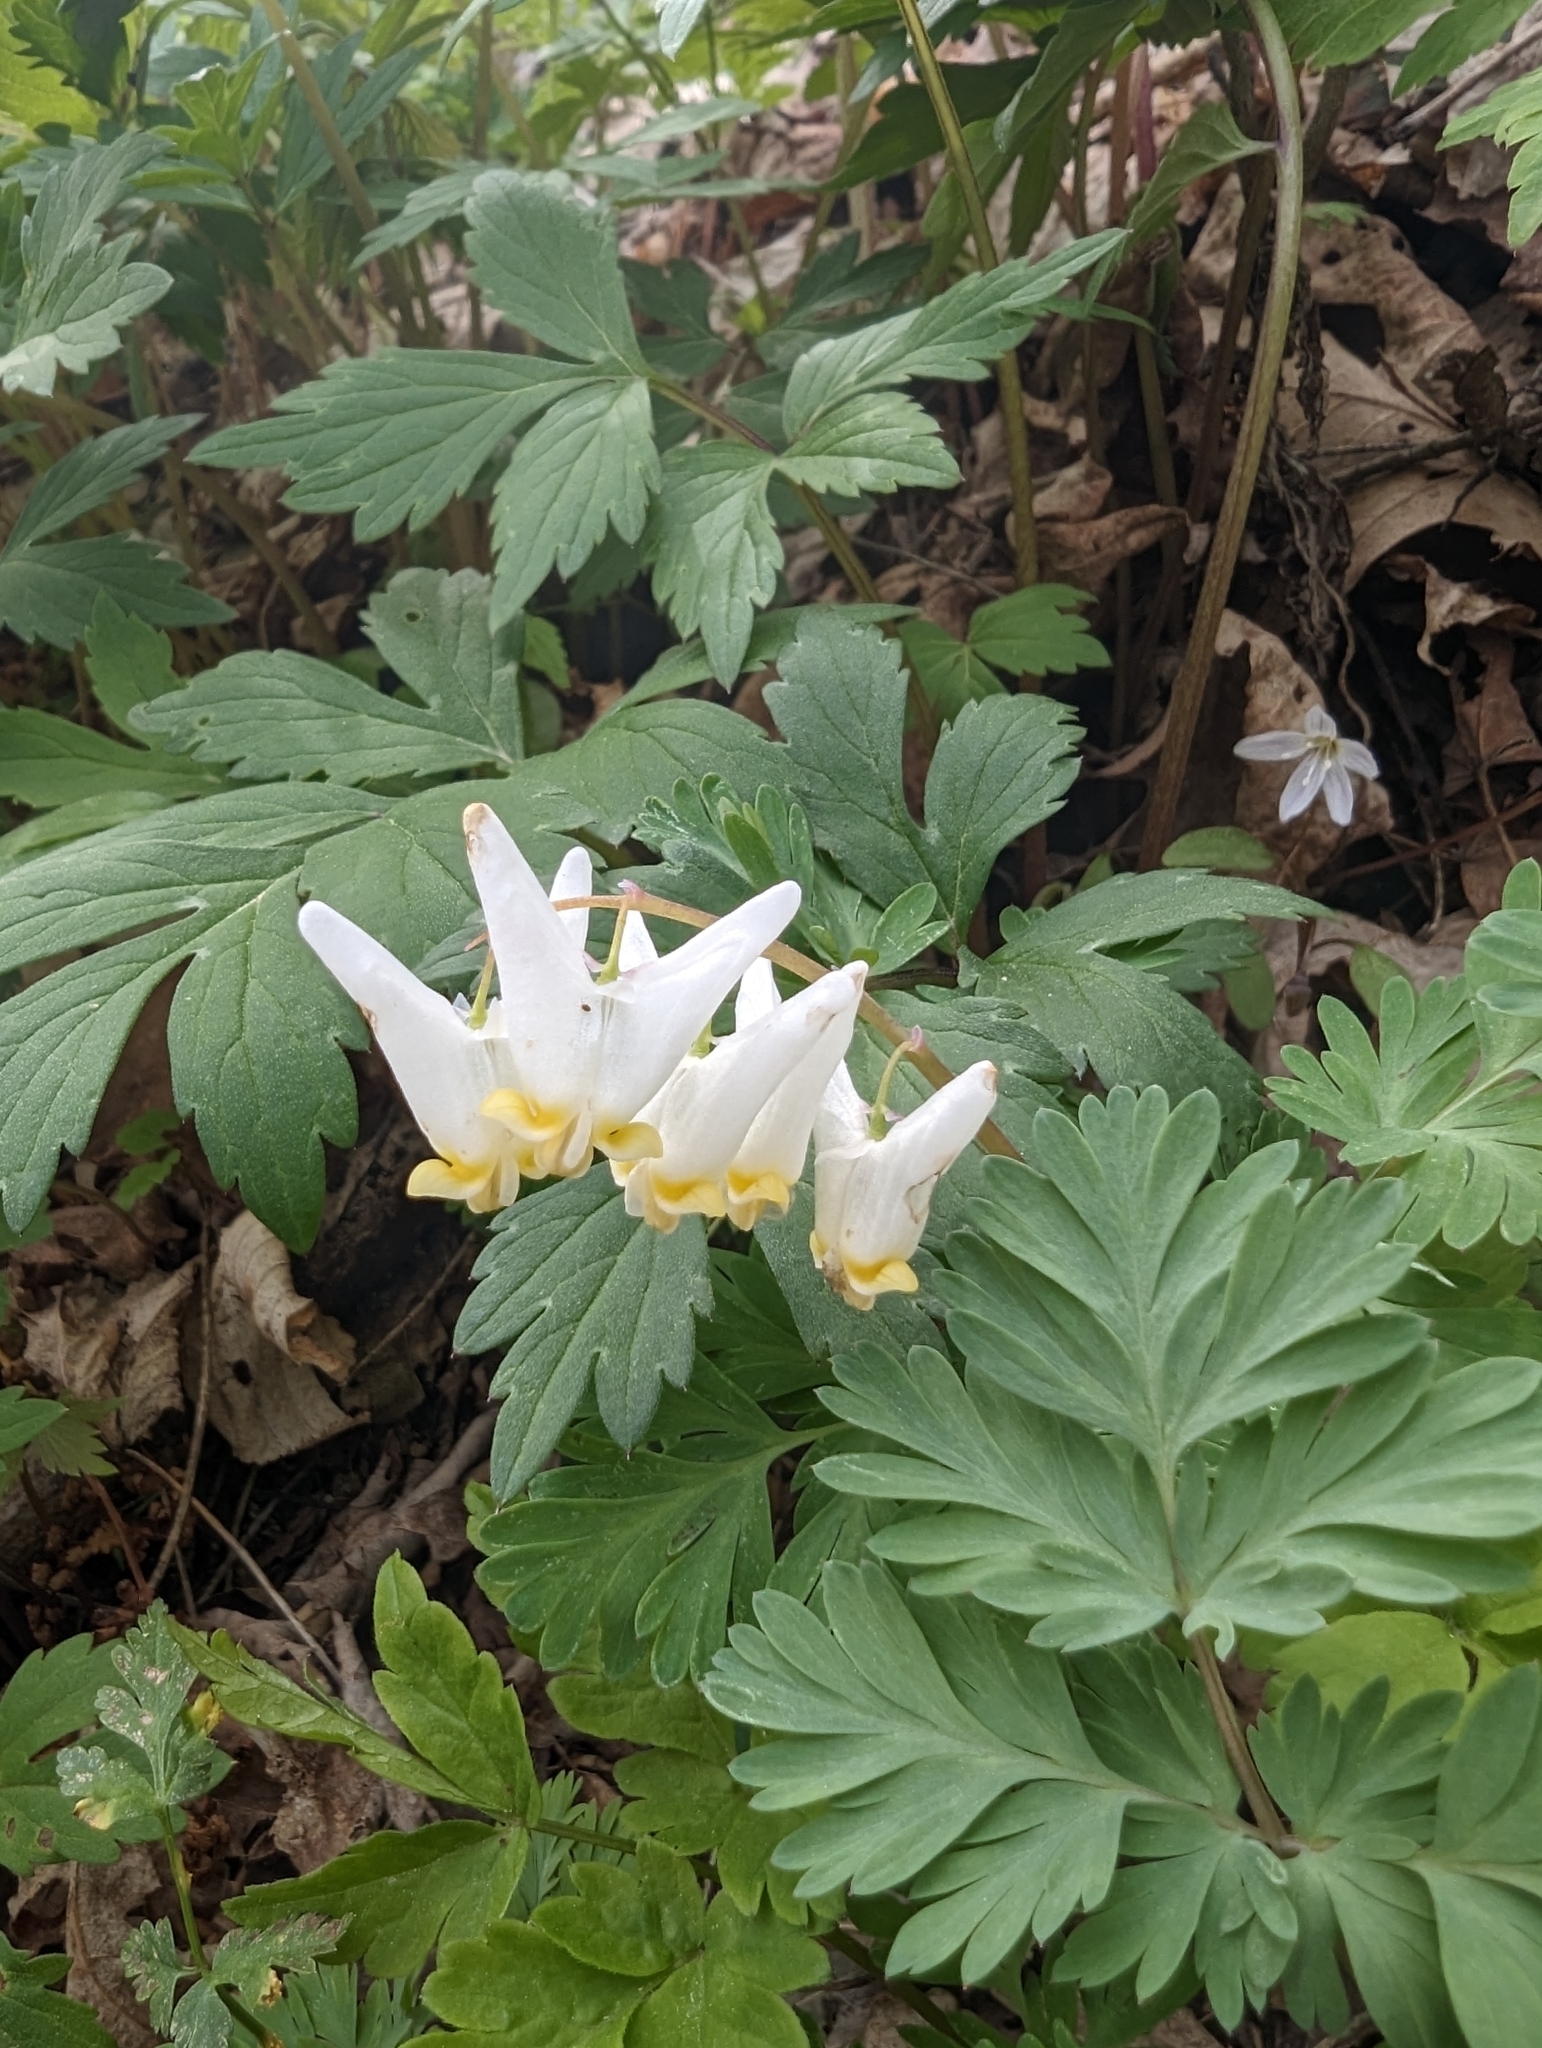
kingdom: Plantae
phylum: Tracheophyta
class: Magnoliopsida
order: Ranunculales
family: Papaveraceae
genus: Dicentra
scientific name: Dicentra cucullaria
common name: Dutchman's breeches
